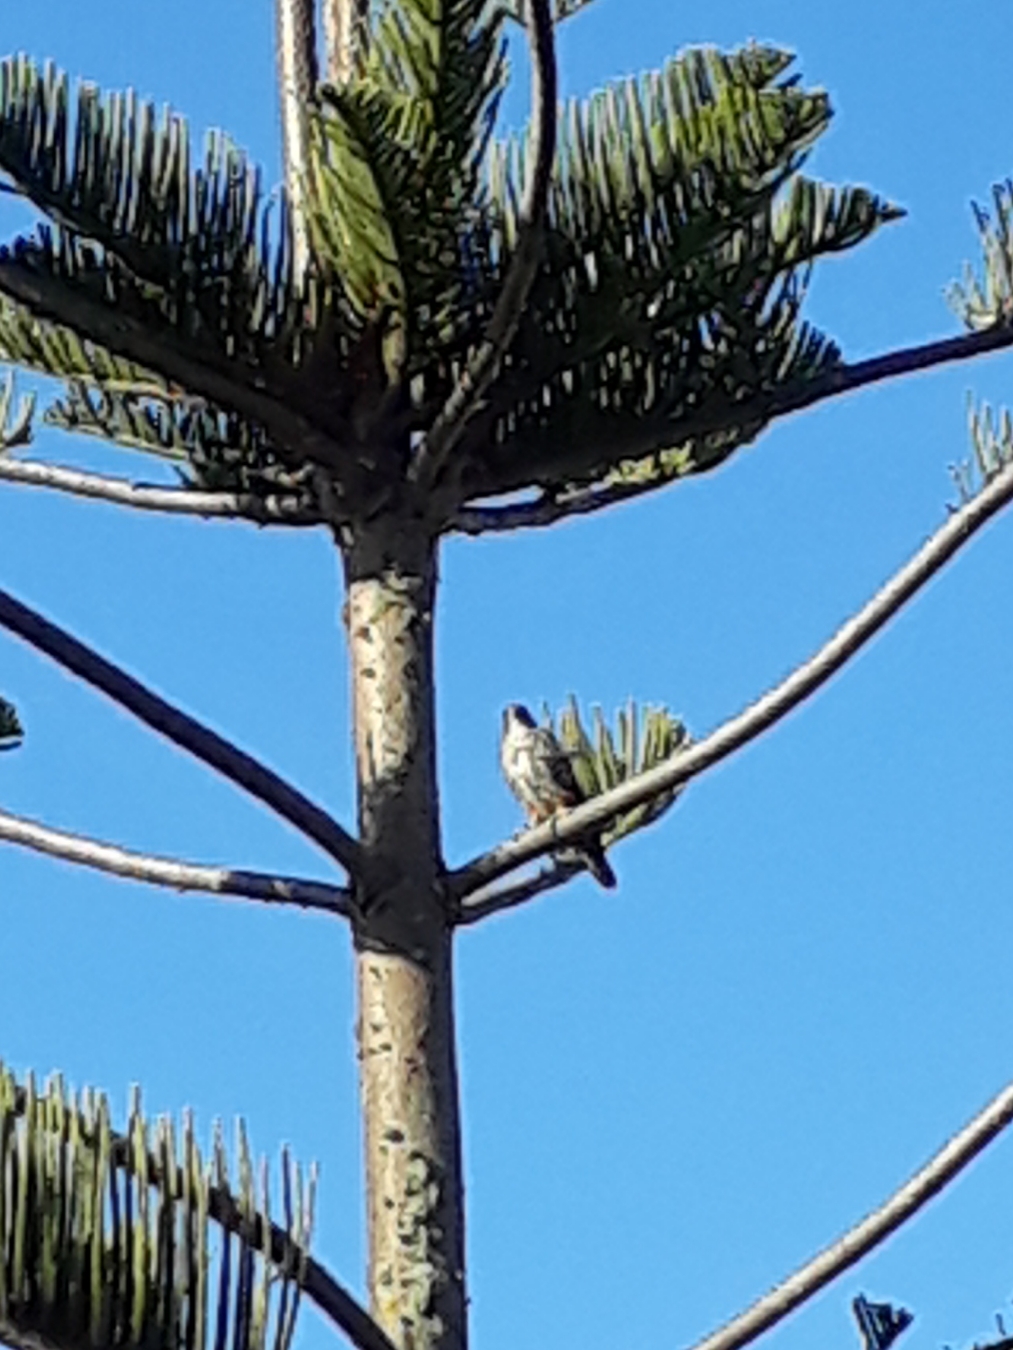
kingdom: Animalia
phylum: Chordata
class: Aves
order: Falconiformes
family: Falconidae
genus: Falco
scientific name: Falco novaeseelandiae
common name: New zealand falcon
